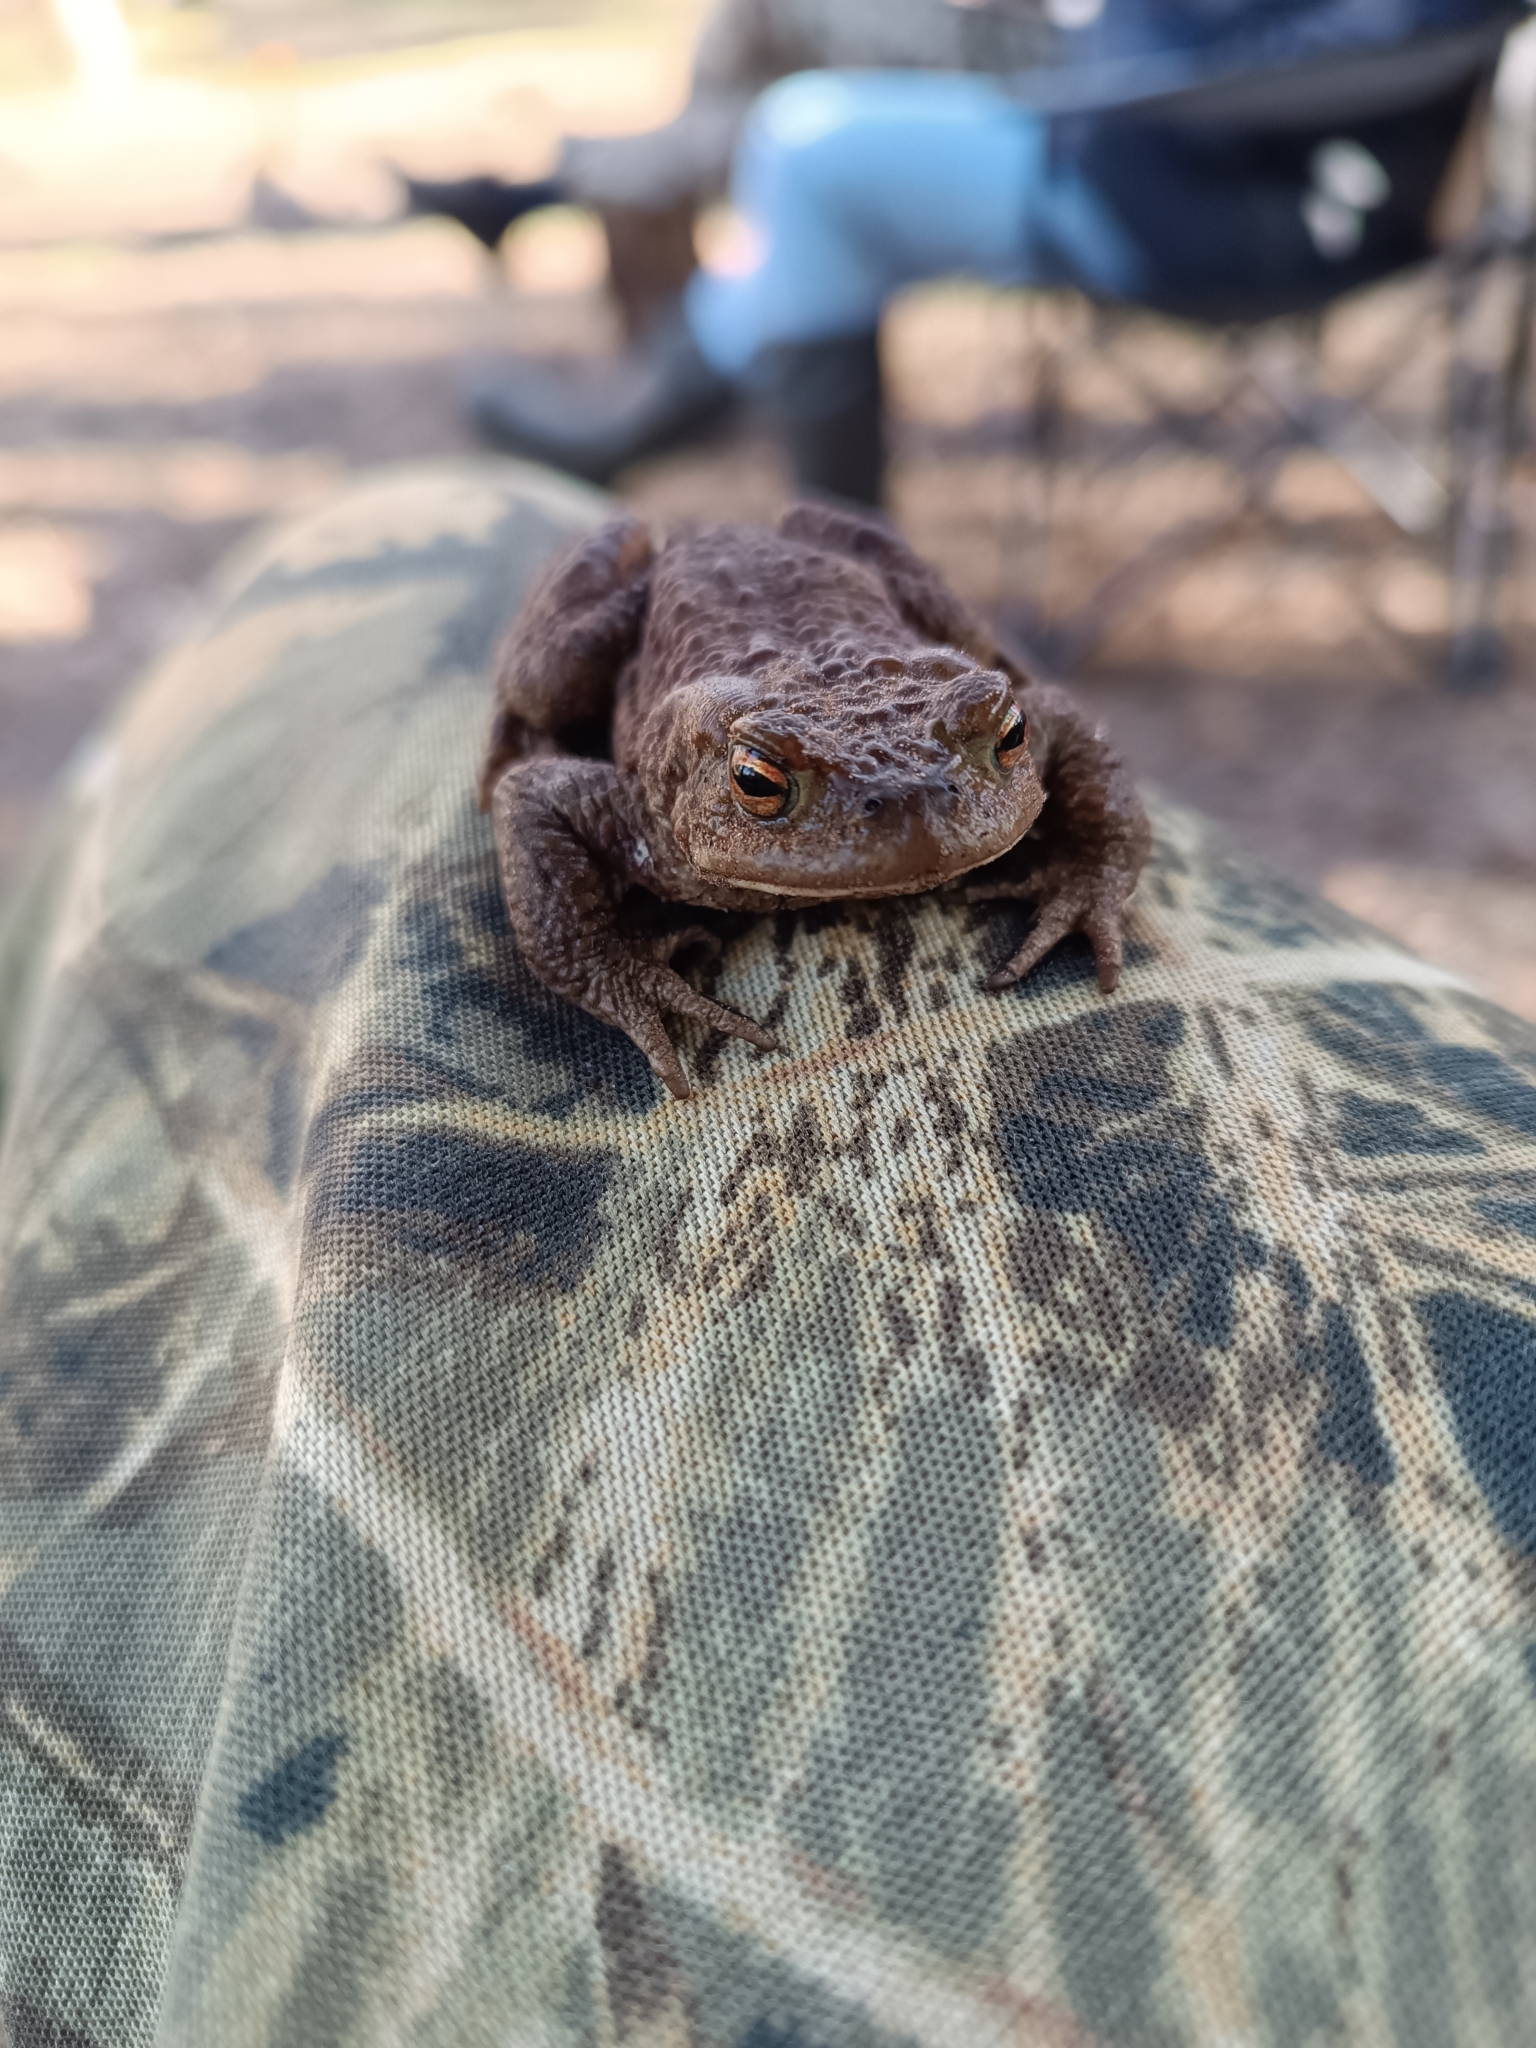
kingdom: Animalia
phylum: Chordata
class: Amphibia
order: Anura
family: Bufonidae
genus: Bufo
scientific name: Bufo bufo
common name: Common toad
